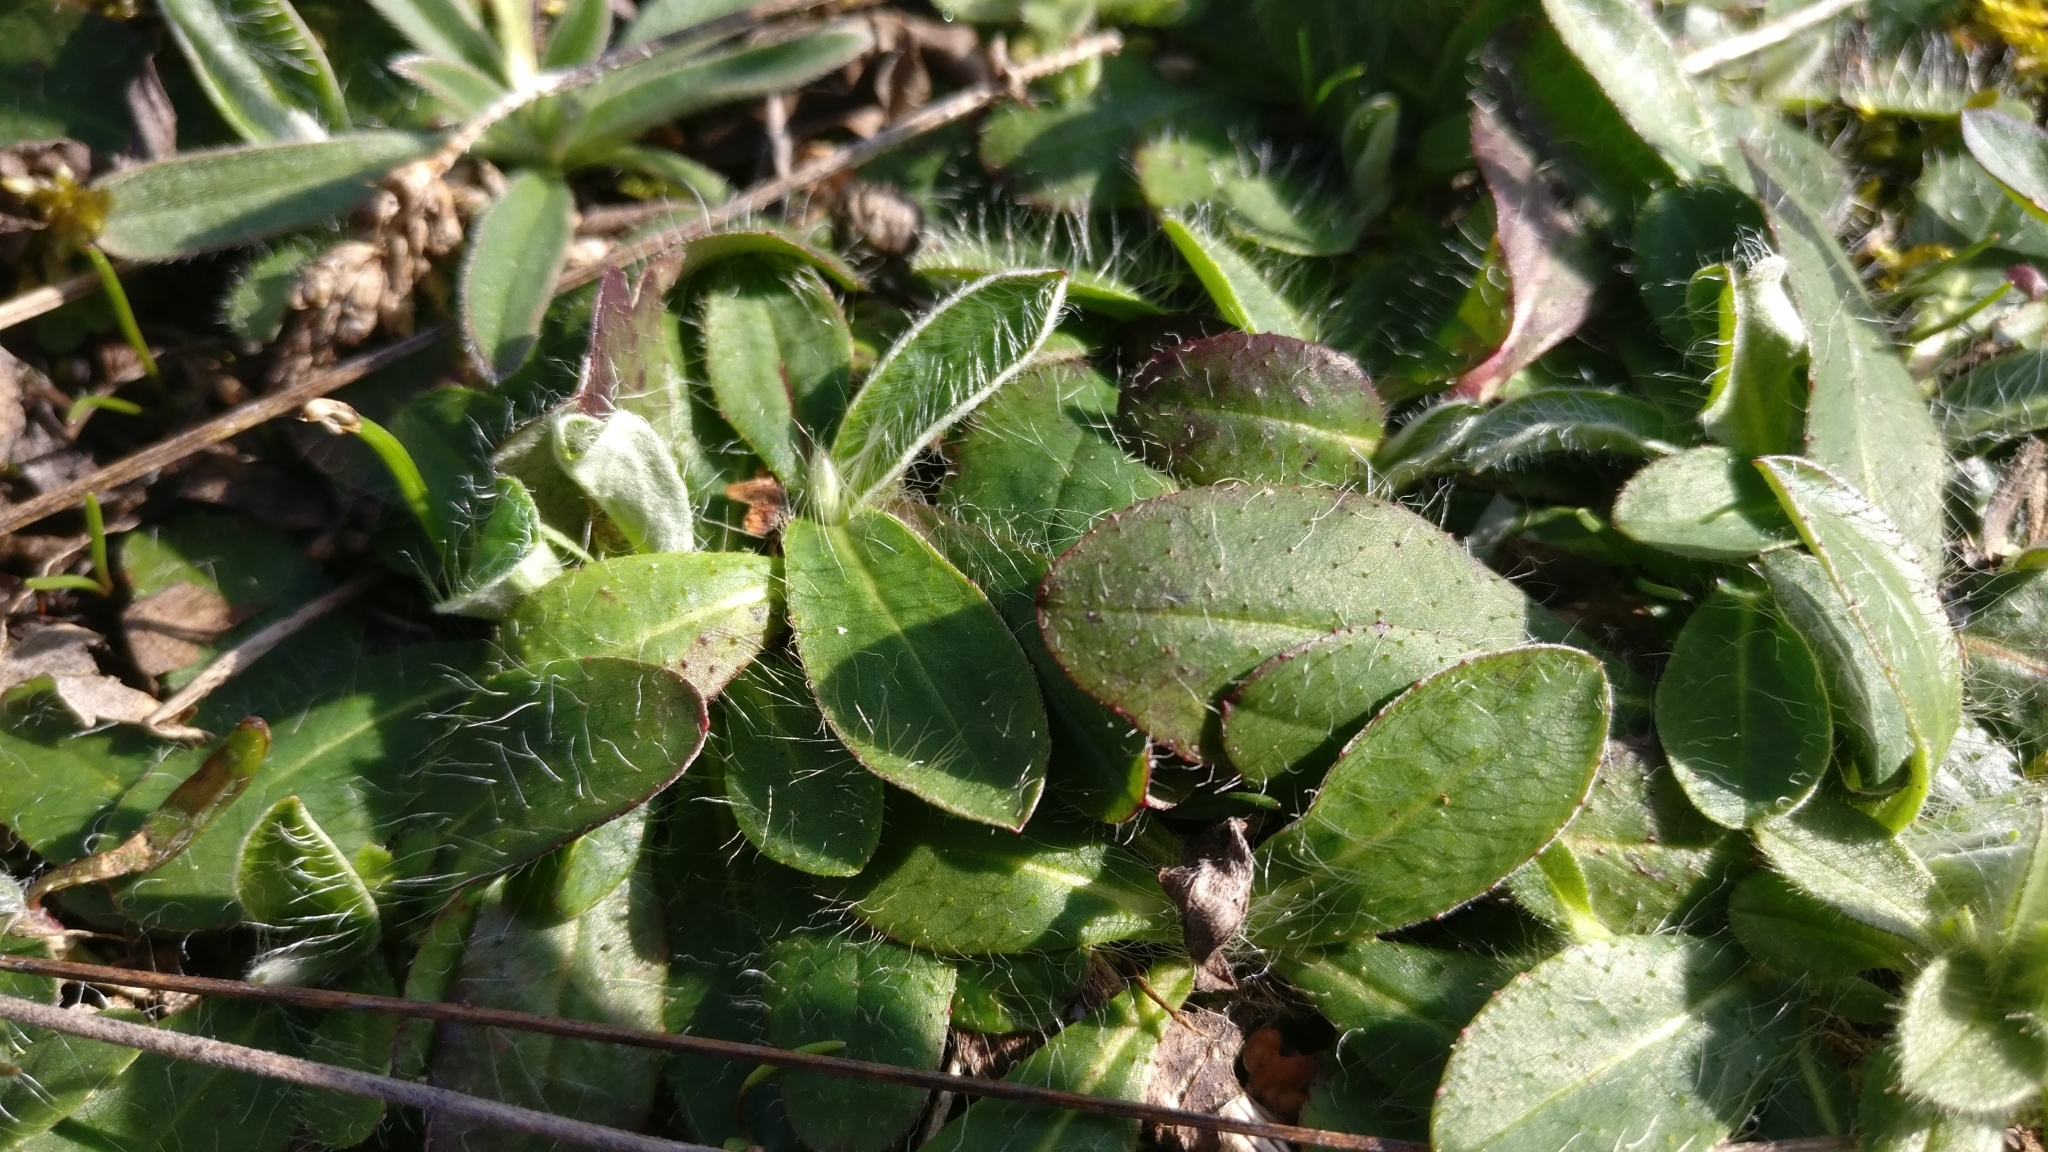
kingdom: Plantae
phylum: Tracheophyta
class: Magnoliopsida
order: Asterales
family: Asteraceae
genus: Pilosella
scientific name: Pilosella officinarum
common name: Mouse-ear hawkweed
